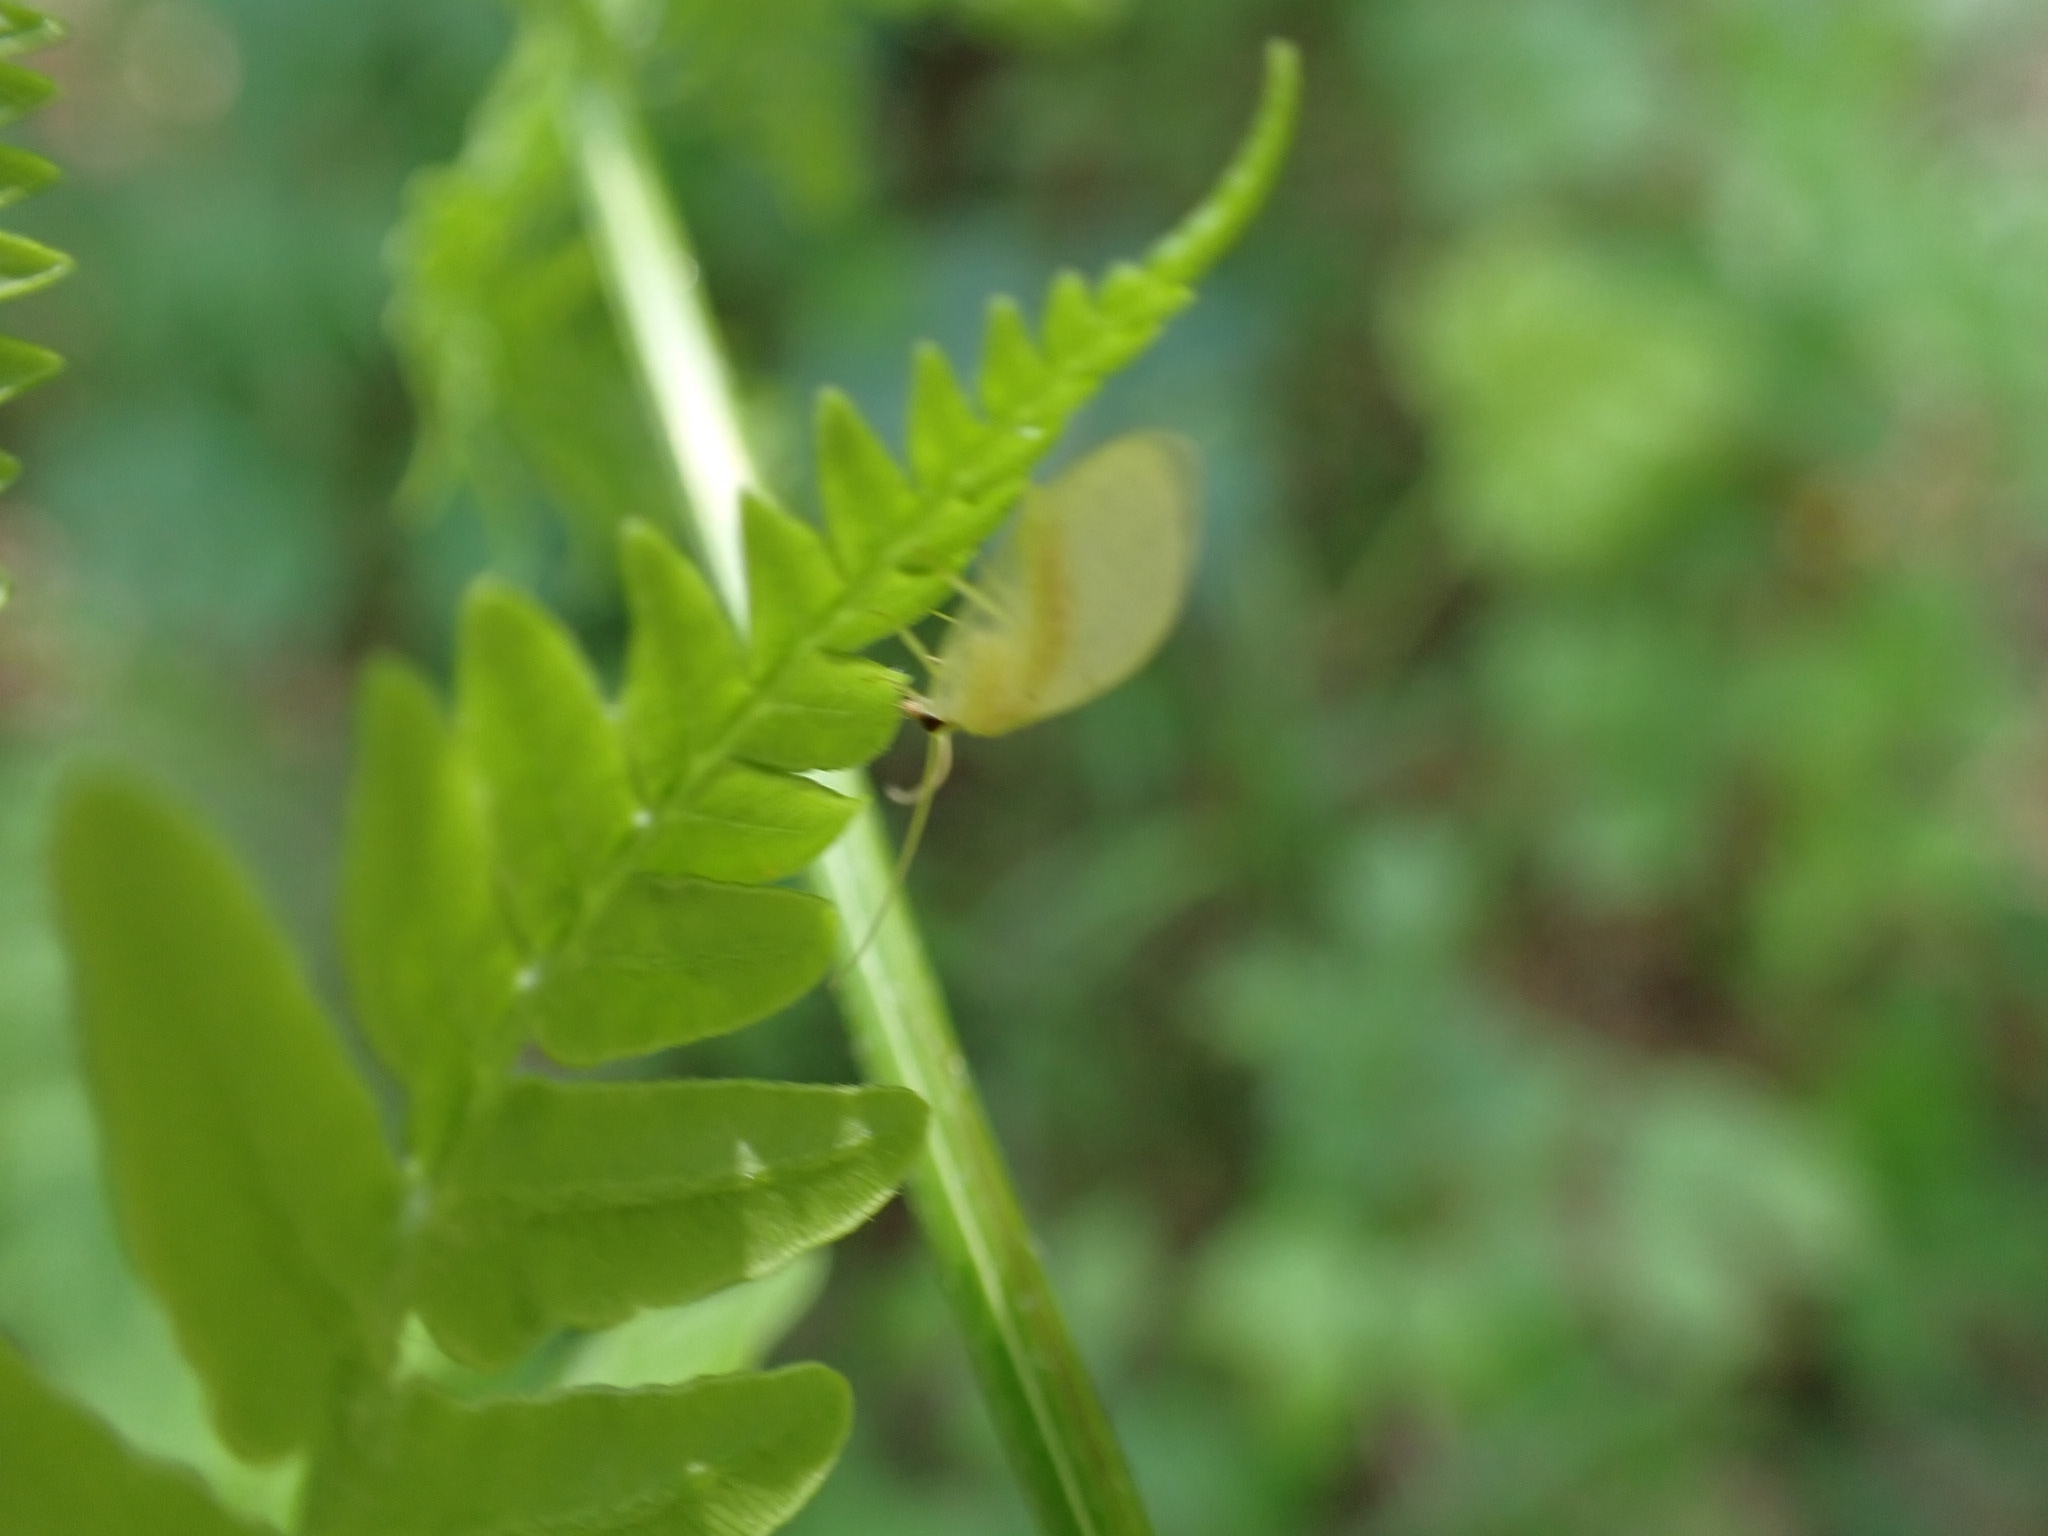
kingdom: Animalia
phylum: Arthropoda
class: Insecta
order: Neuroptera
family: Hemerobiidae
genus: Hemerobius
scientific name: Hemerobius marginatus
